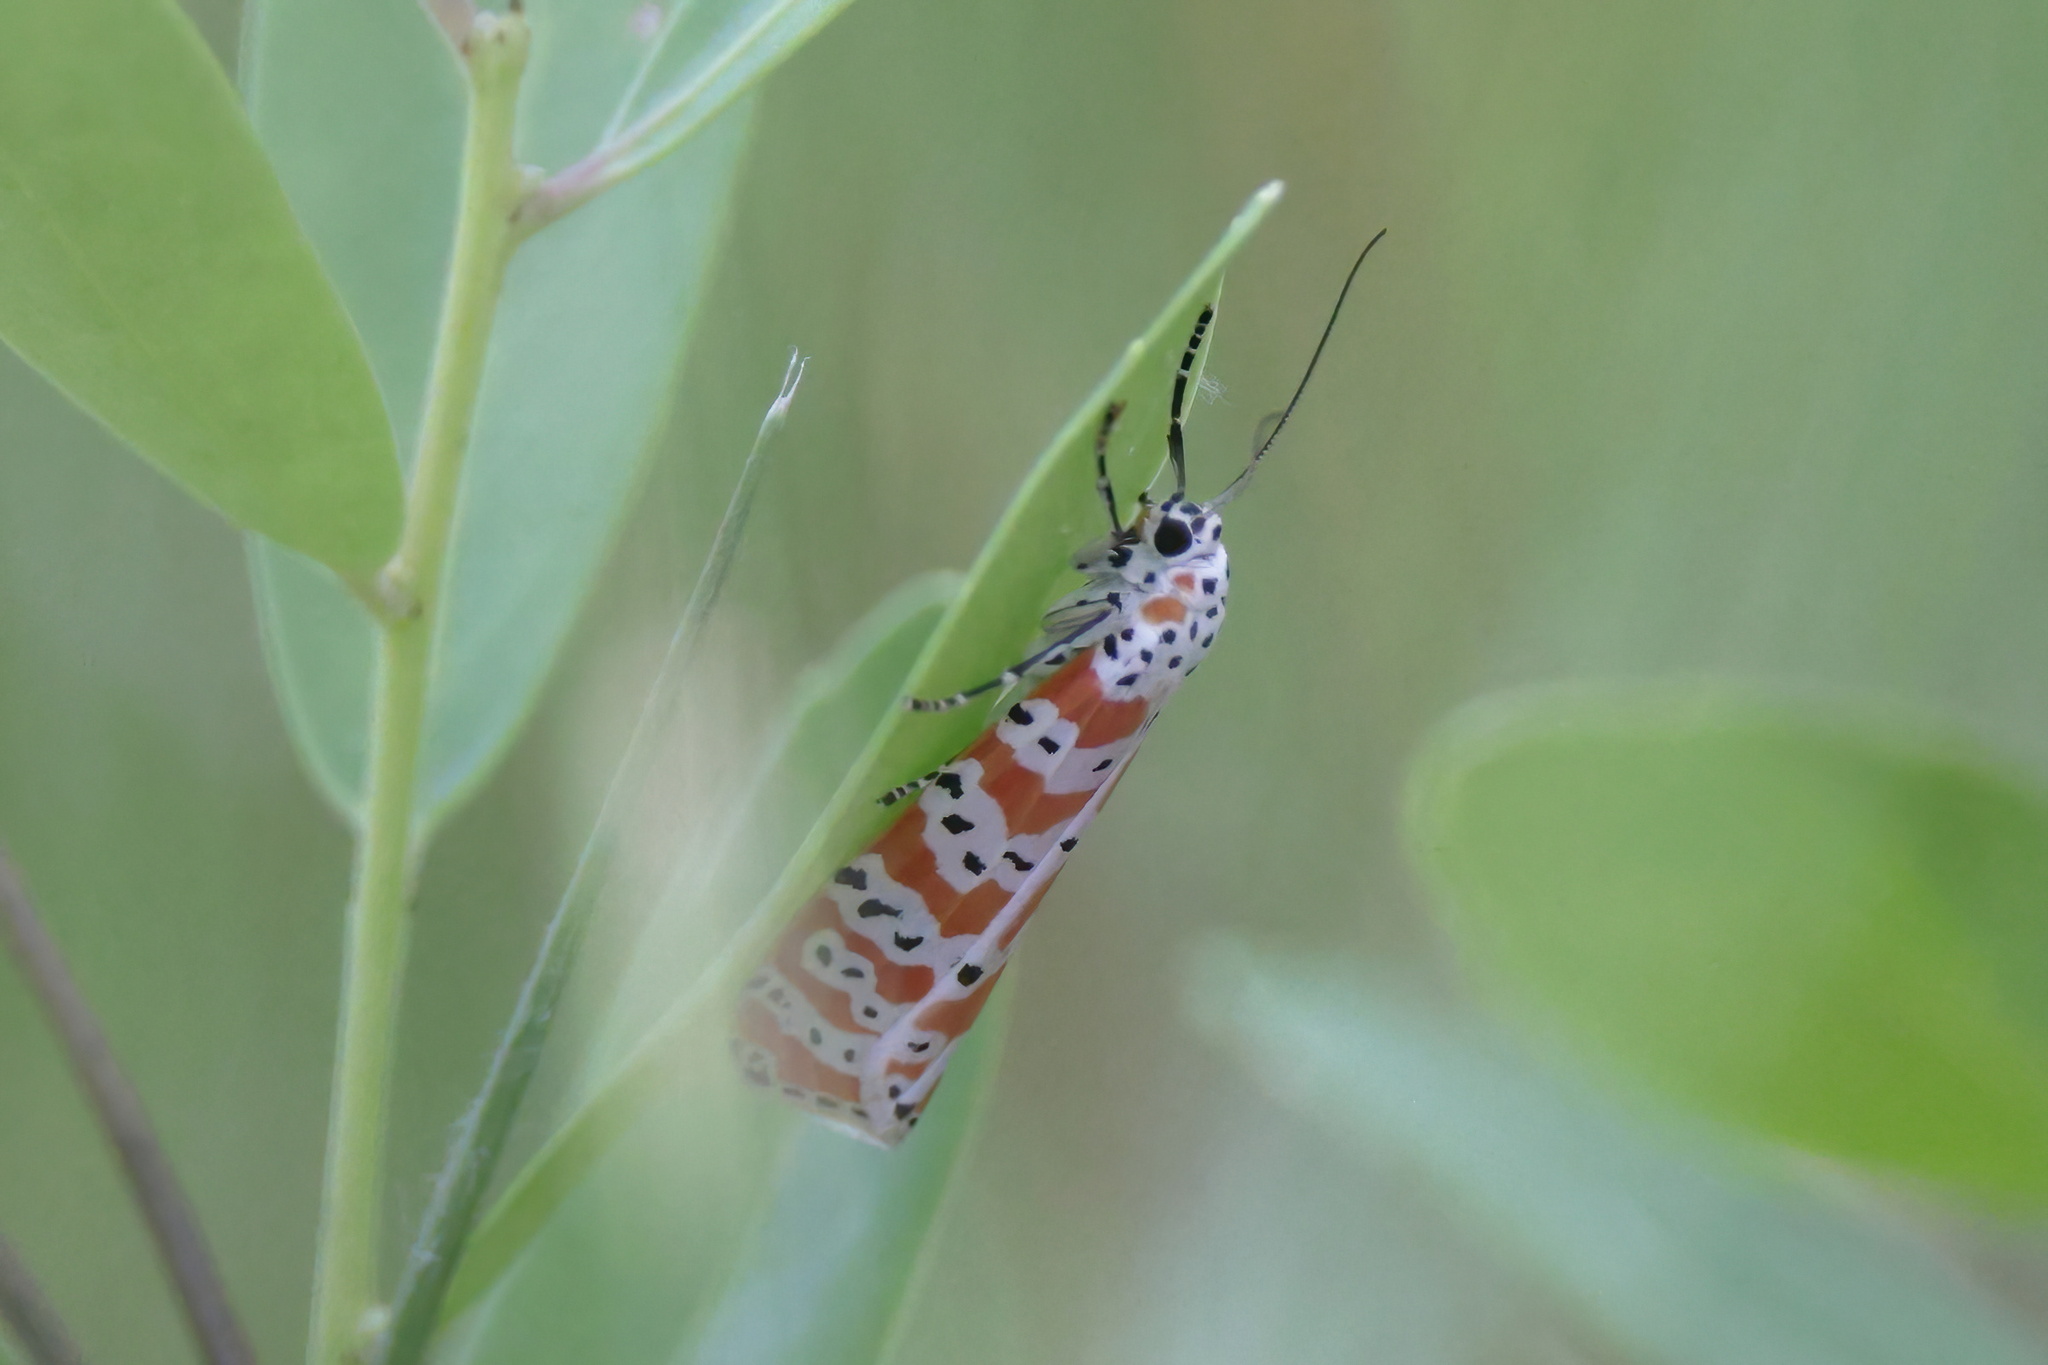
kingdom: Animalia
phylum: Arthropoda
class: Insecta
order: Lepidoptera
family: Erebidae
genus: Utetheisa
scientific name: Utetheisa ornatrix
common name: Beautiful utetheisa
